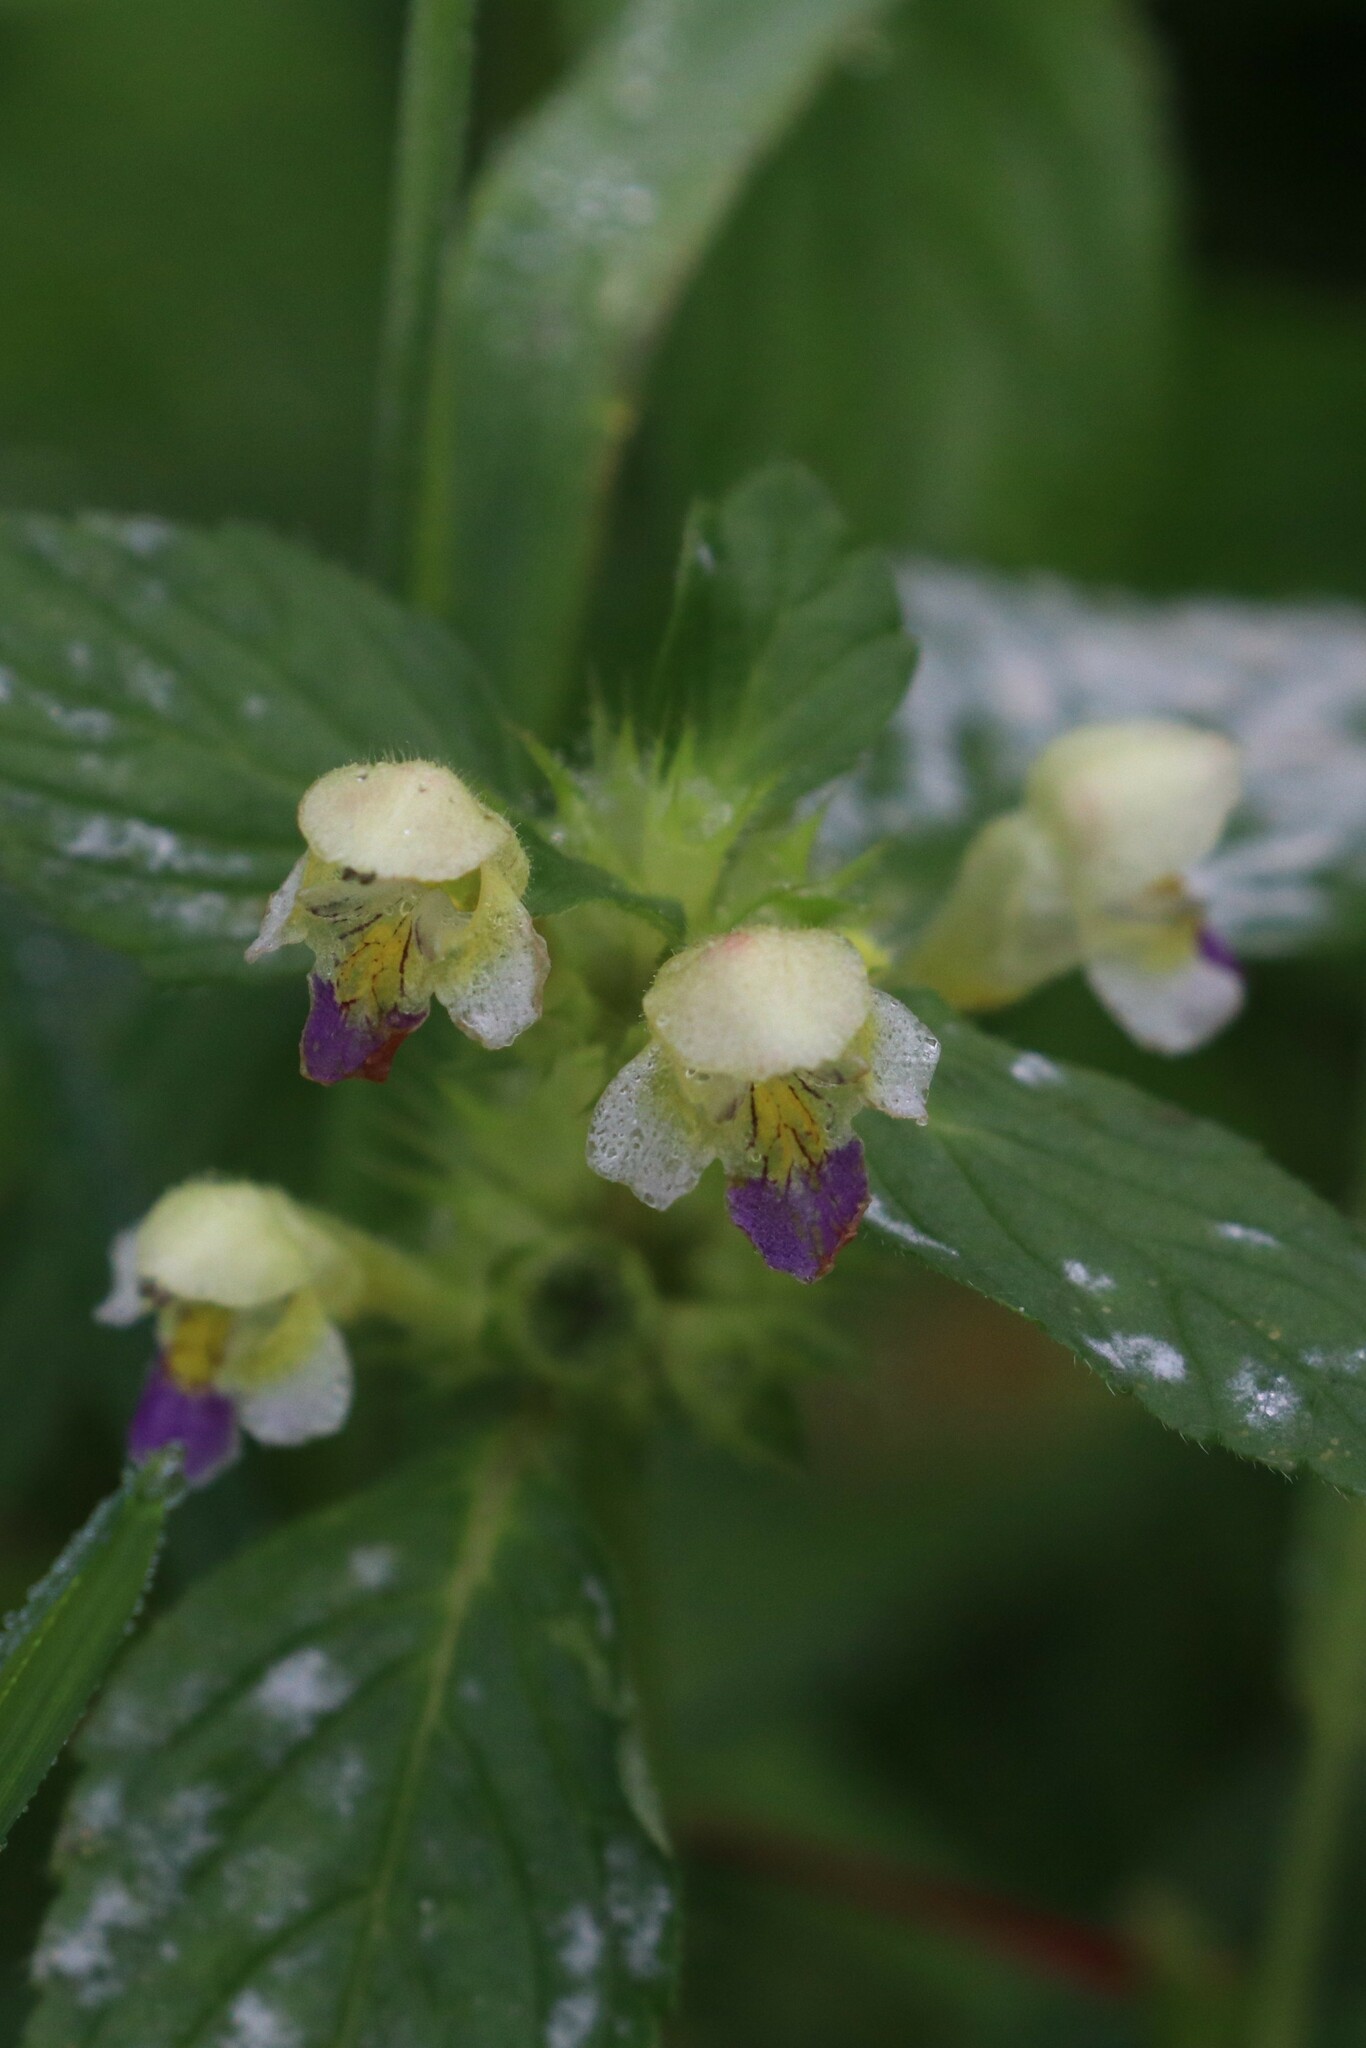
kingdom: Plantae
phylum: Tracheophyta
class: Magnoliopsida
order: Lamiales
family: Lamiaceae
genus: Galeopsis
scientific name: Galeopsis speciosa
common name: Large-flowered hemp-nettle
